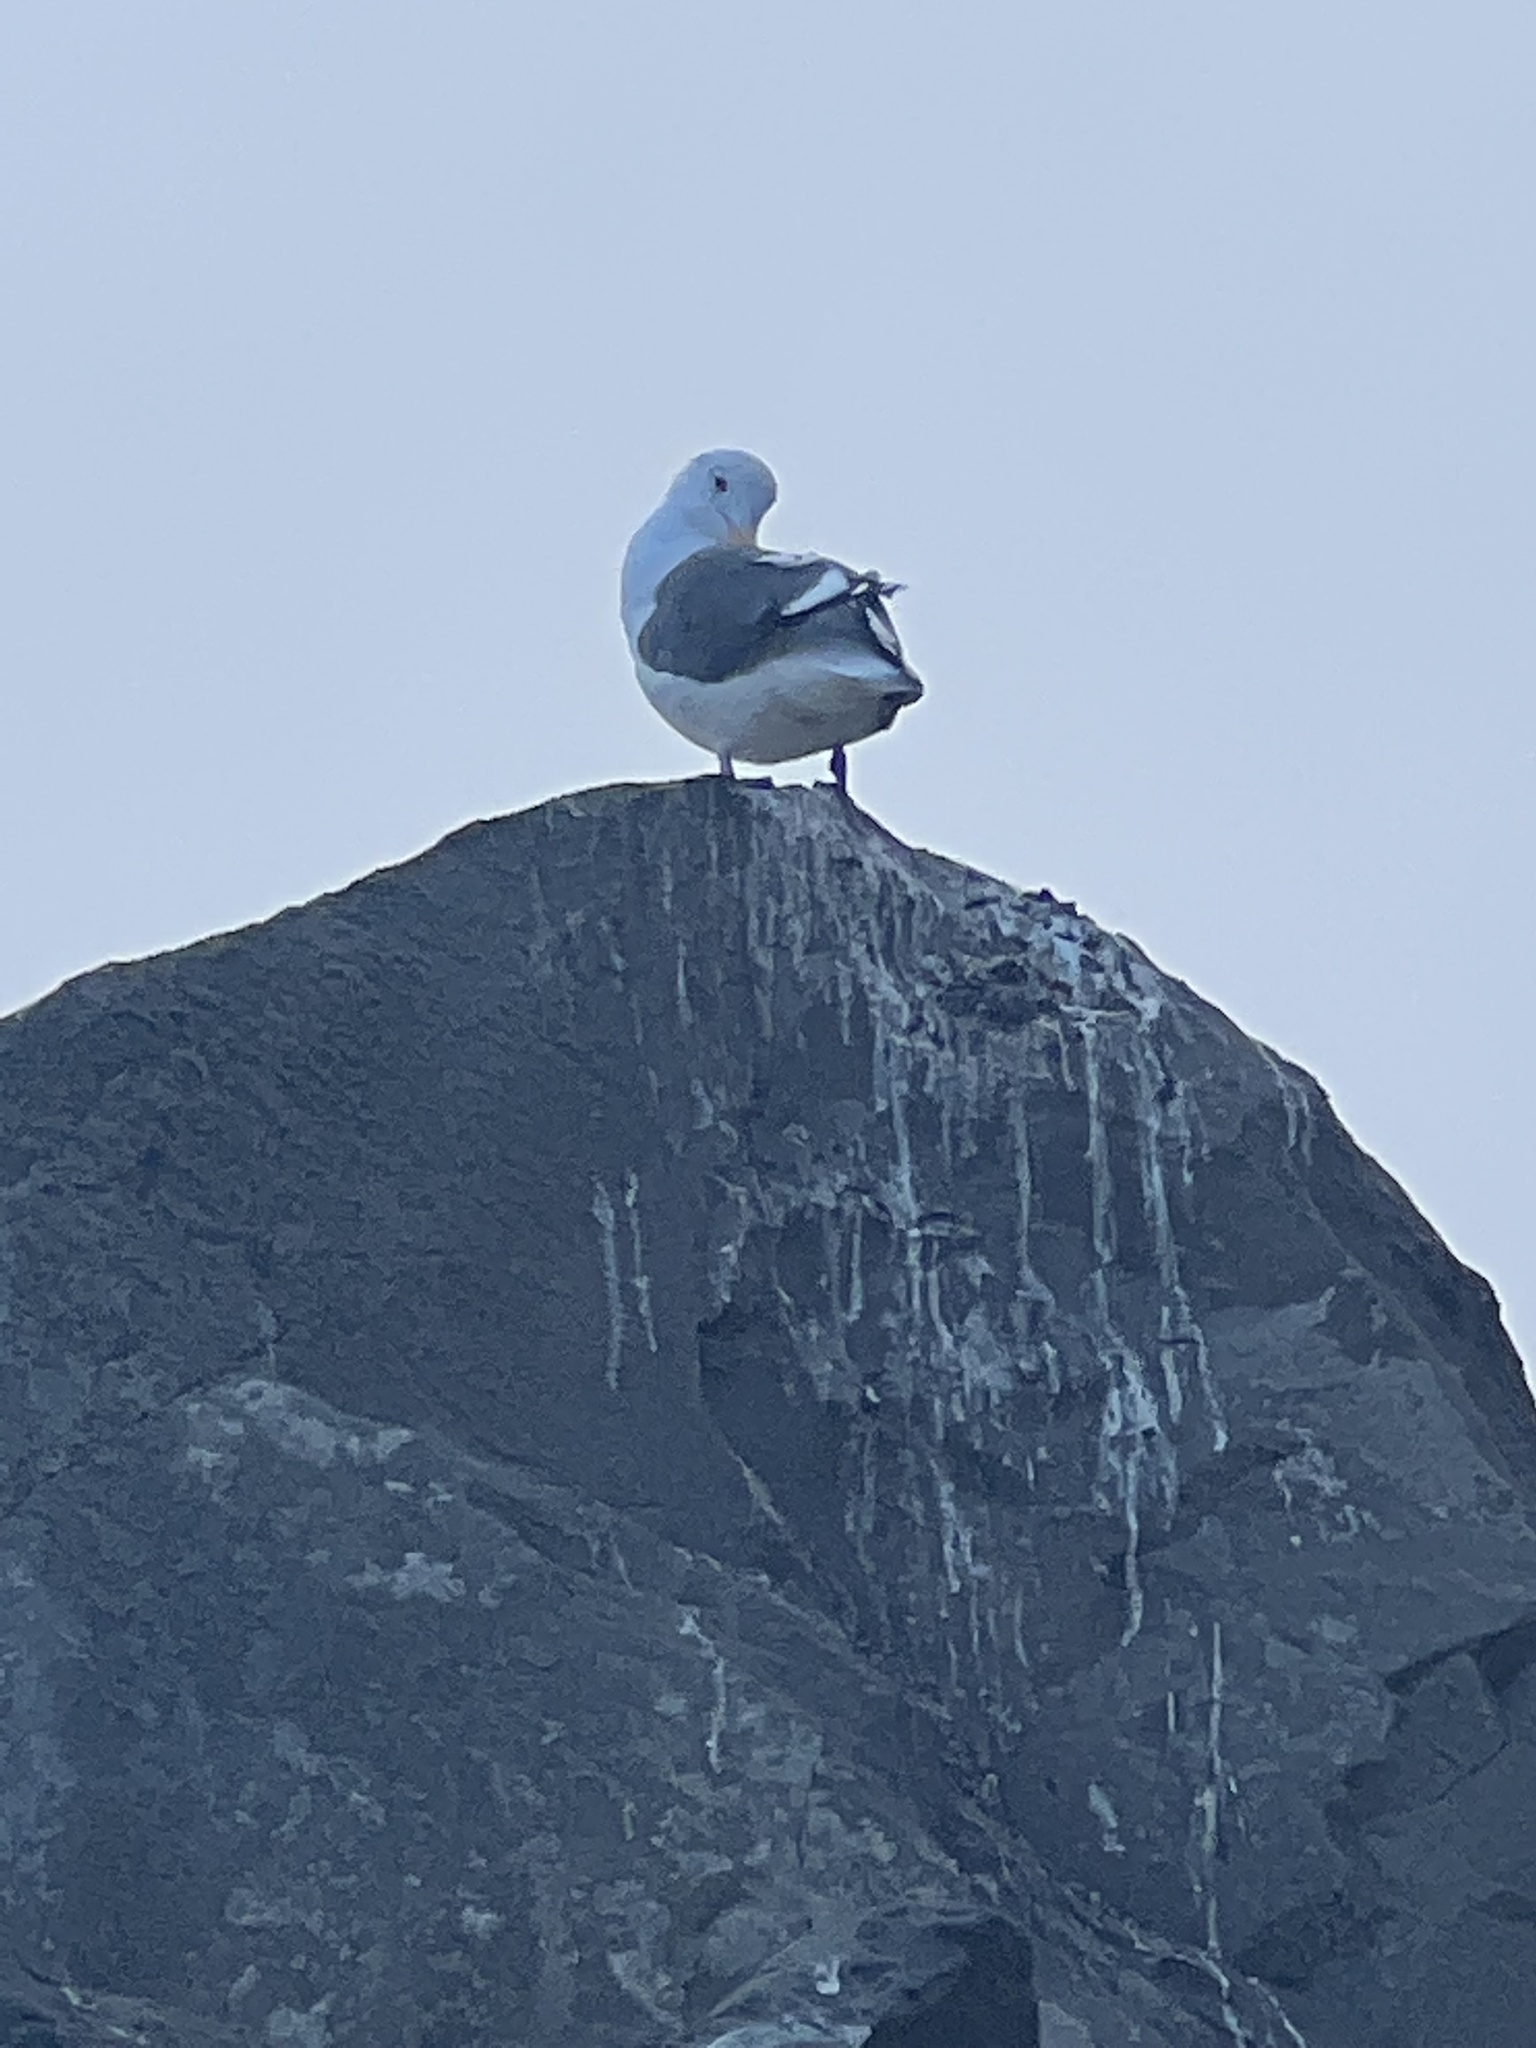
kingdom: Animalia
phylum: Chordata
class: Aves
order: Charadriiformes
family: Laridae
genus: Larus
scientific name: Larus occidentalis
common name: Western gull
